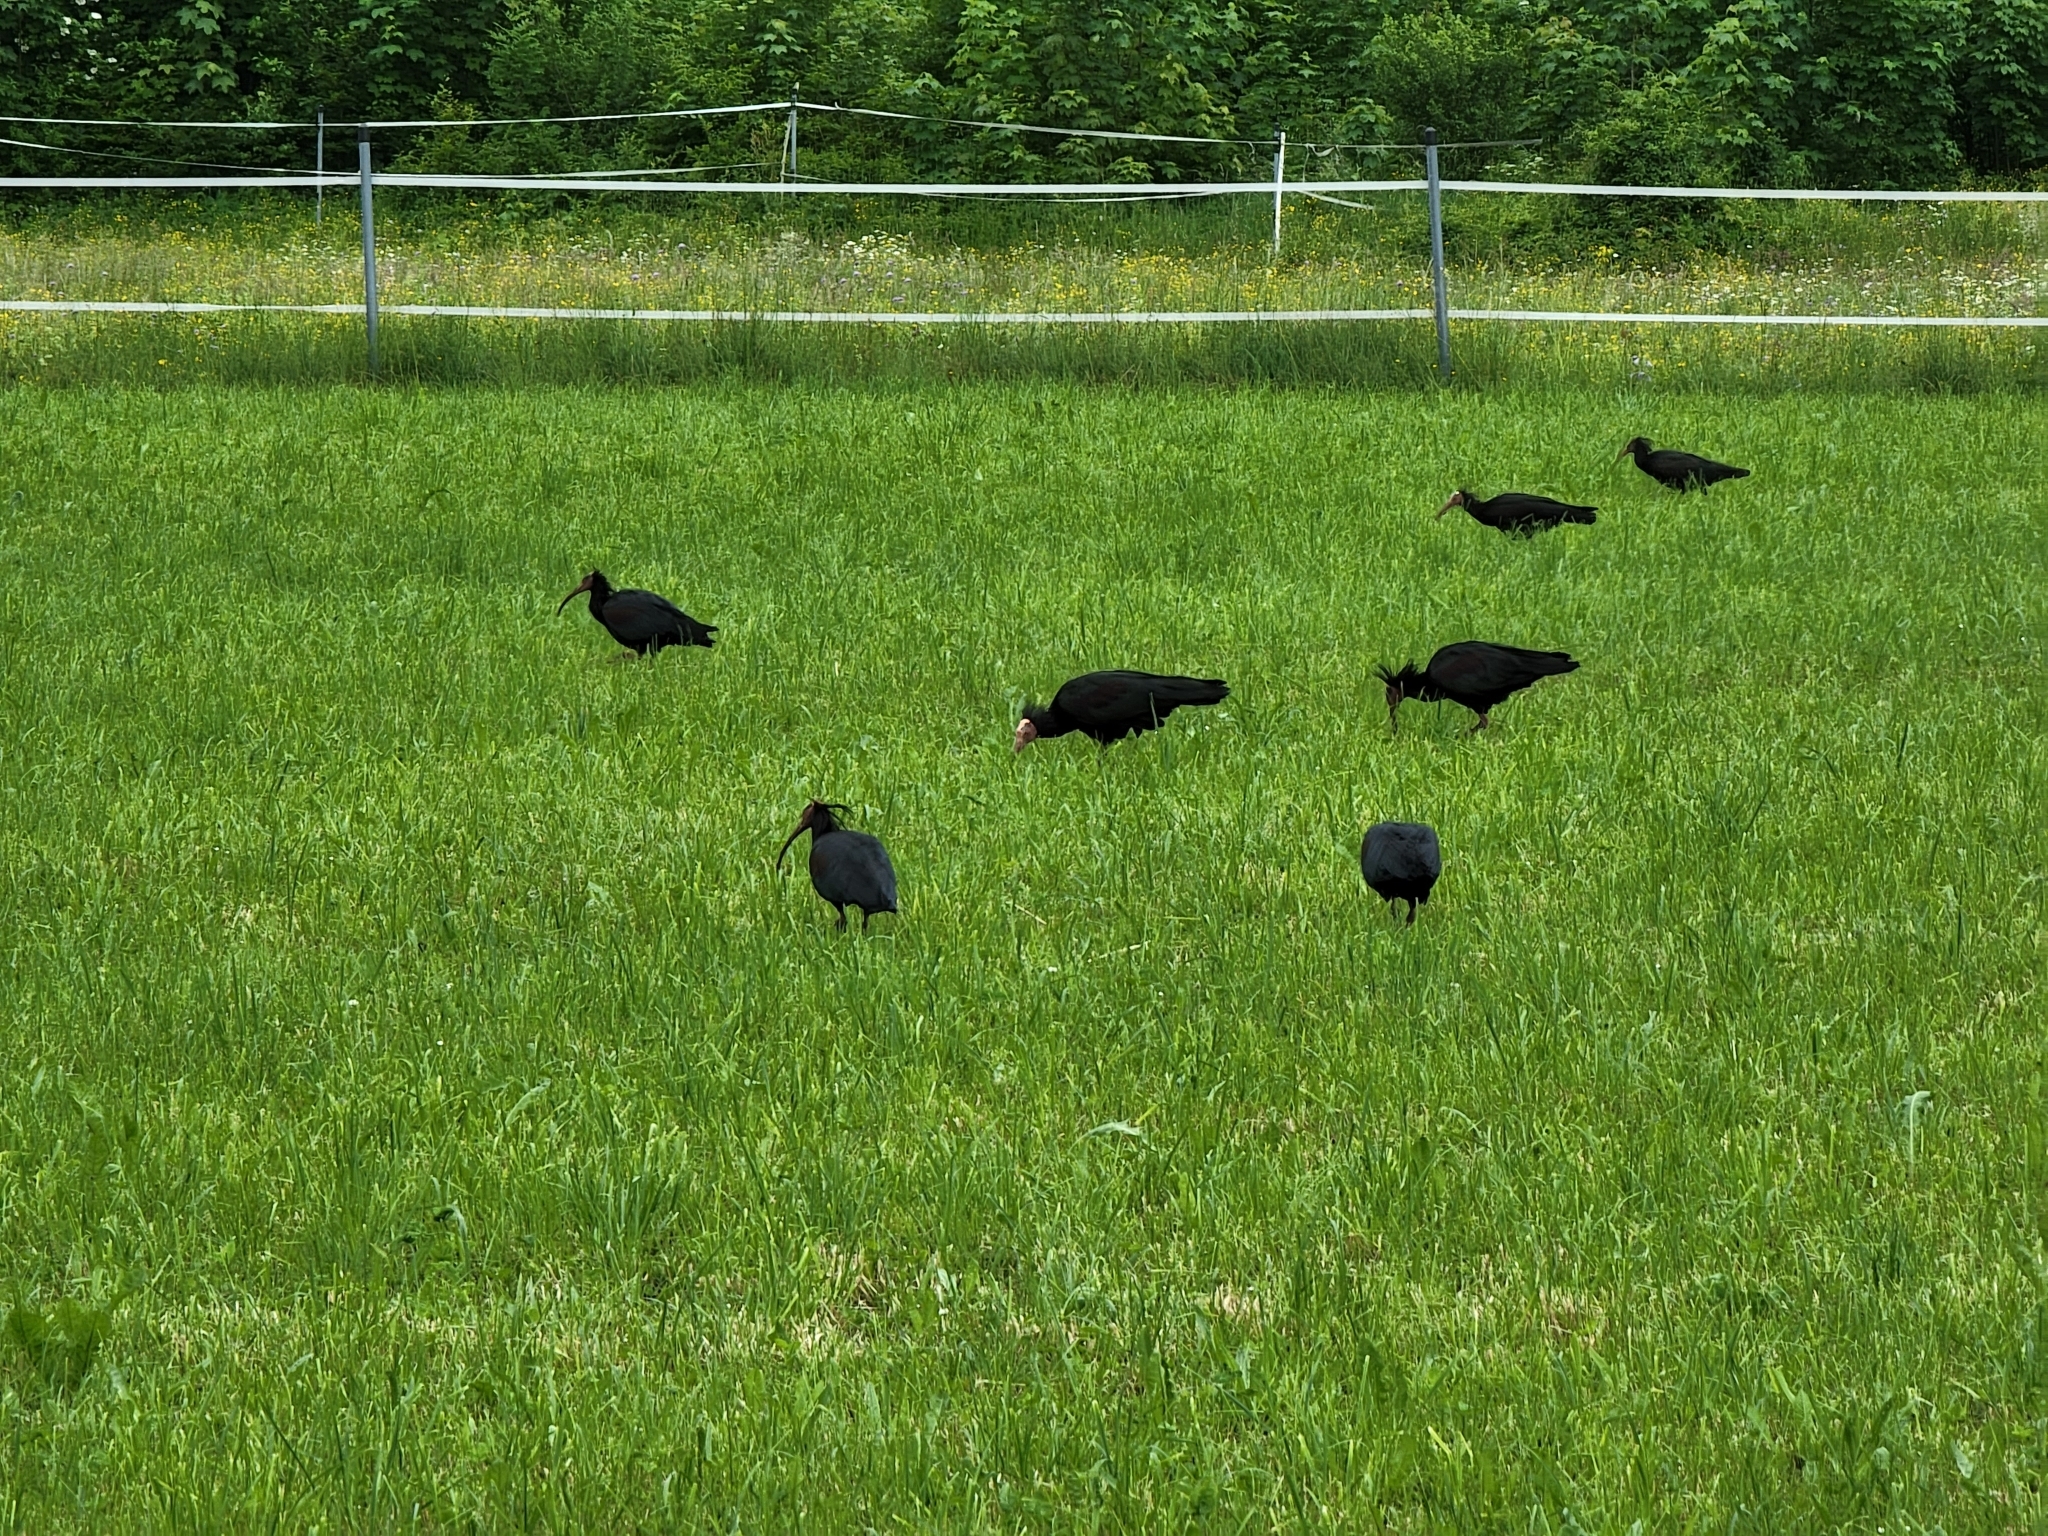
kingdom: Animalia
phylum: Chordata
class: Aves
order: Pelecaniformes
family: Threskiornithidae
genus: Geronticus
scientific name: Geronticus eremita
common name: Northern bald ibis
